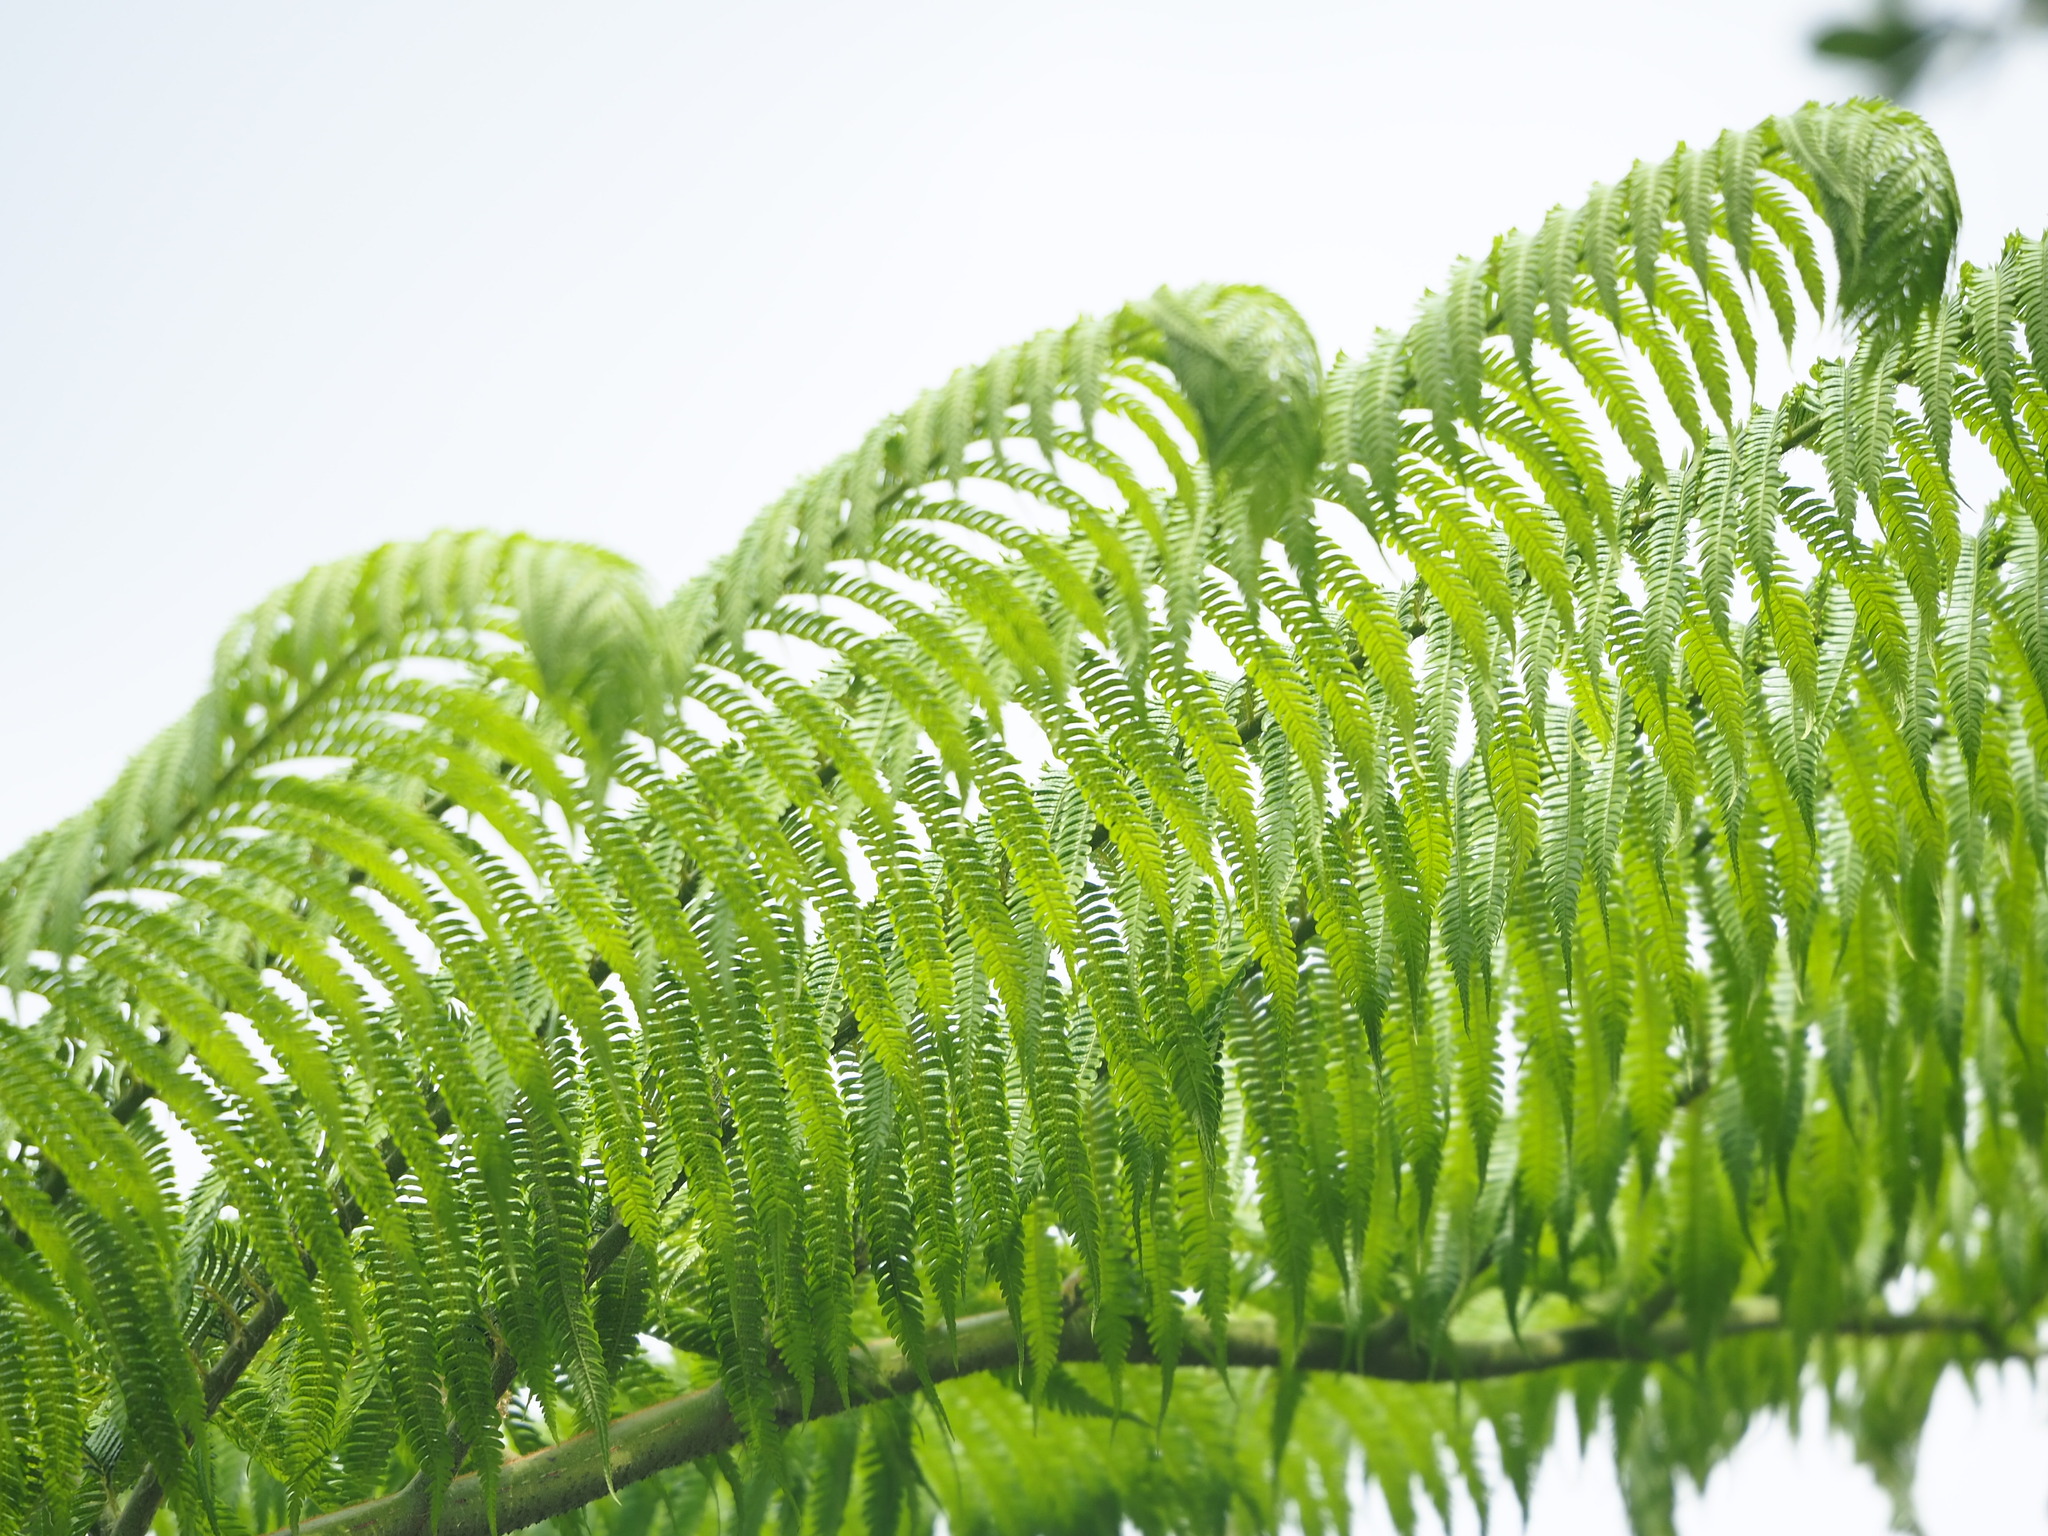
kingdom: Plantae
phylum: Tracheophyta
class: Polypodiopsida
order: Cyatheales
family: Cyatheaceae
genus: Alsophila
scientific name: Alsophila lepifera
